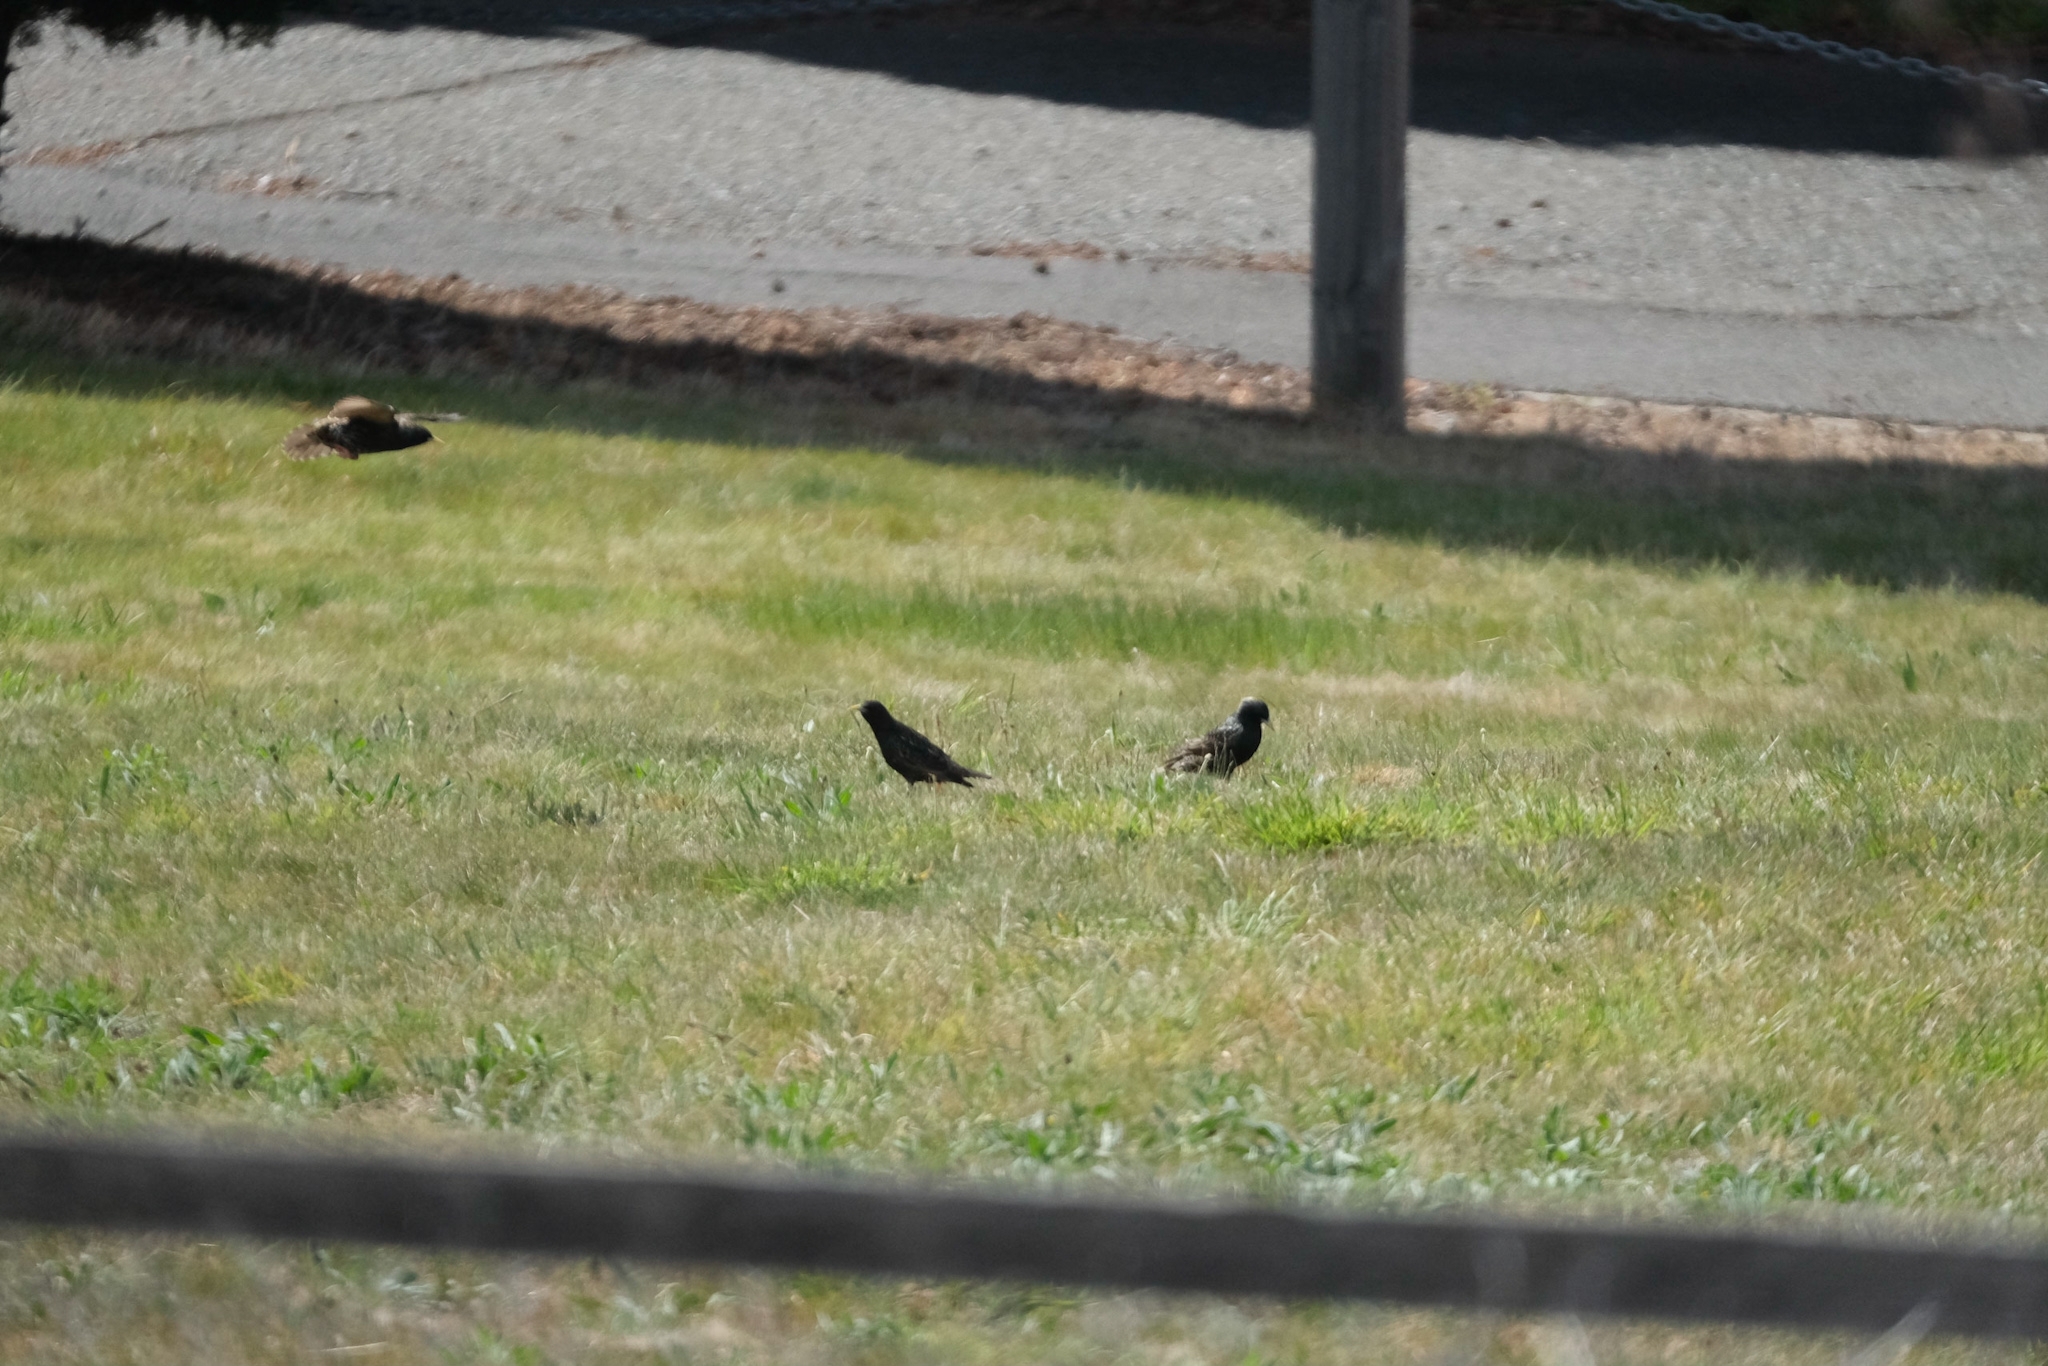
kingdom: Animalia
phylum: Chordata
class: Aves
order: Passeriformes
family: Sturnidae
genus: Sturnus
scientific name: Sturnus vulgaris
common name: Common starling
